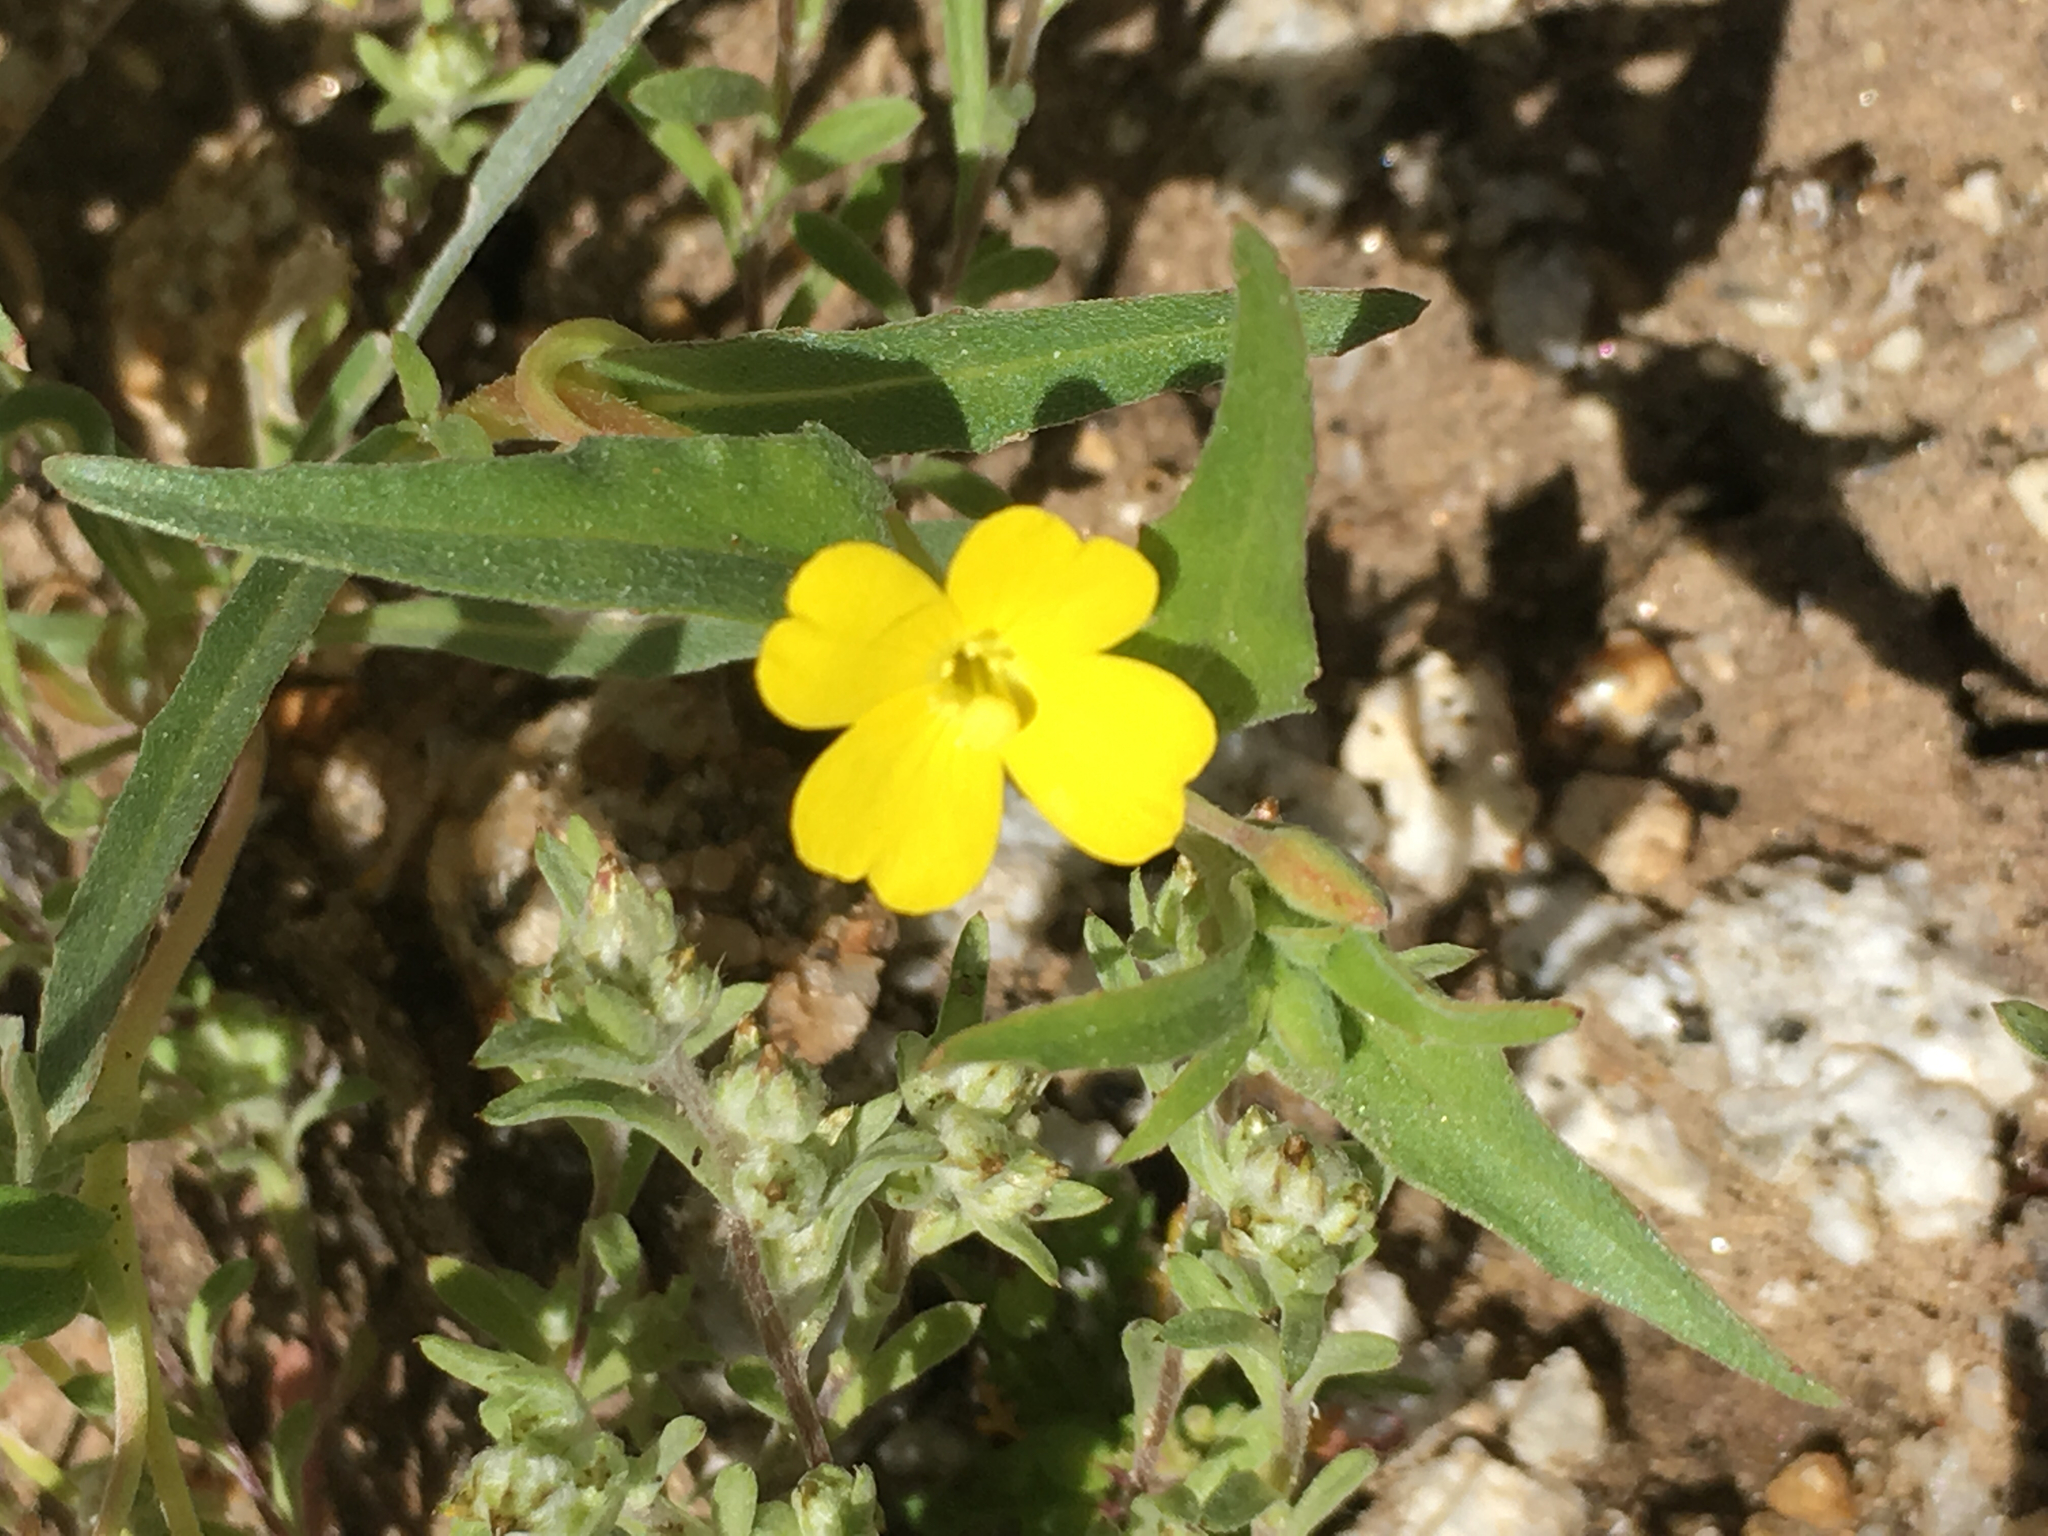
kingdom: Plantae
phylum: Tracheophyta
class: Magnoliopsida
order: Myrtales
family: Onagraceae
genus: Camissoniopsis
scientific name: Camissoniopsis pallida
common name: Paleyellow suncup
